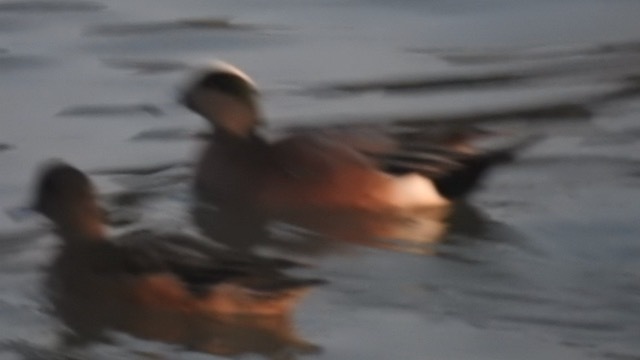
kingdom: Animalia
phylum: Chordata
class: Aves
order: Anseriformes
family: Anatidae
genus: Mareca
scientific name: Mareca americana
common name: American wigeon
